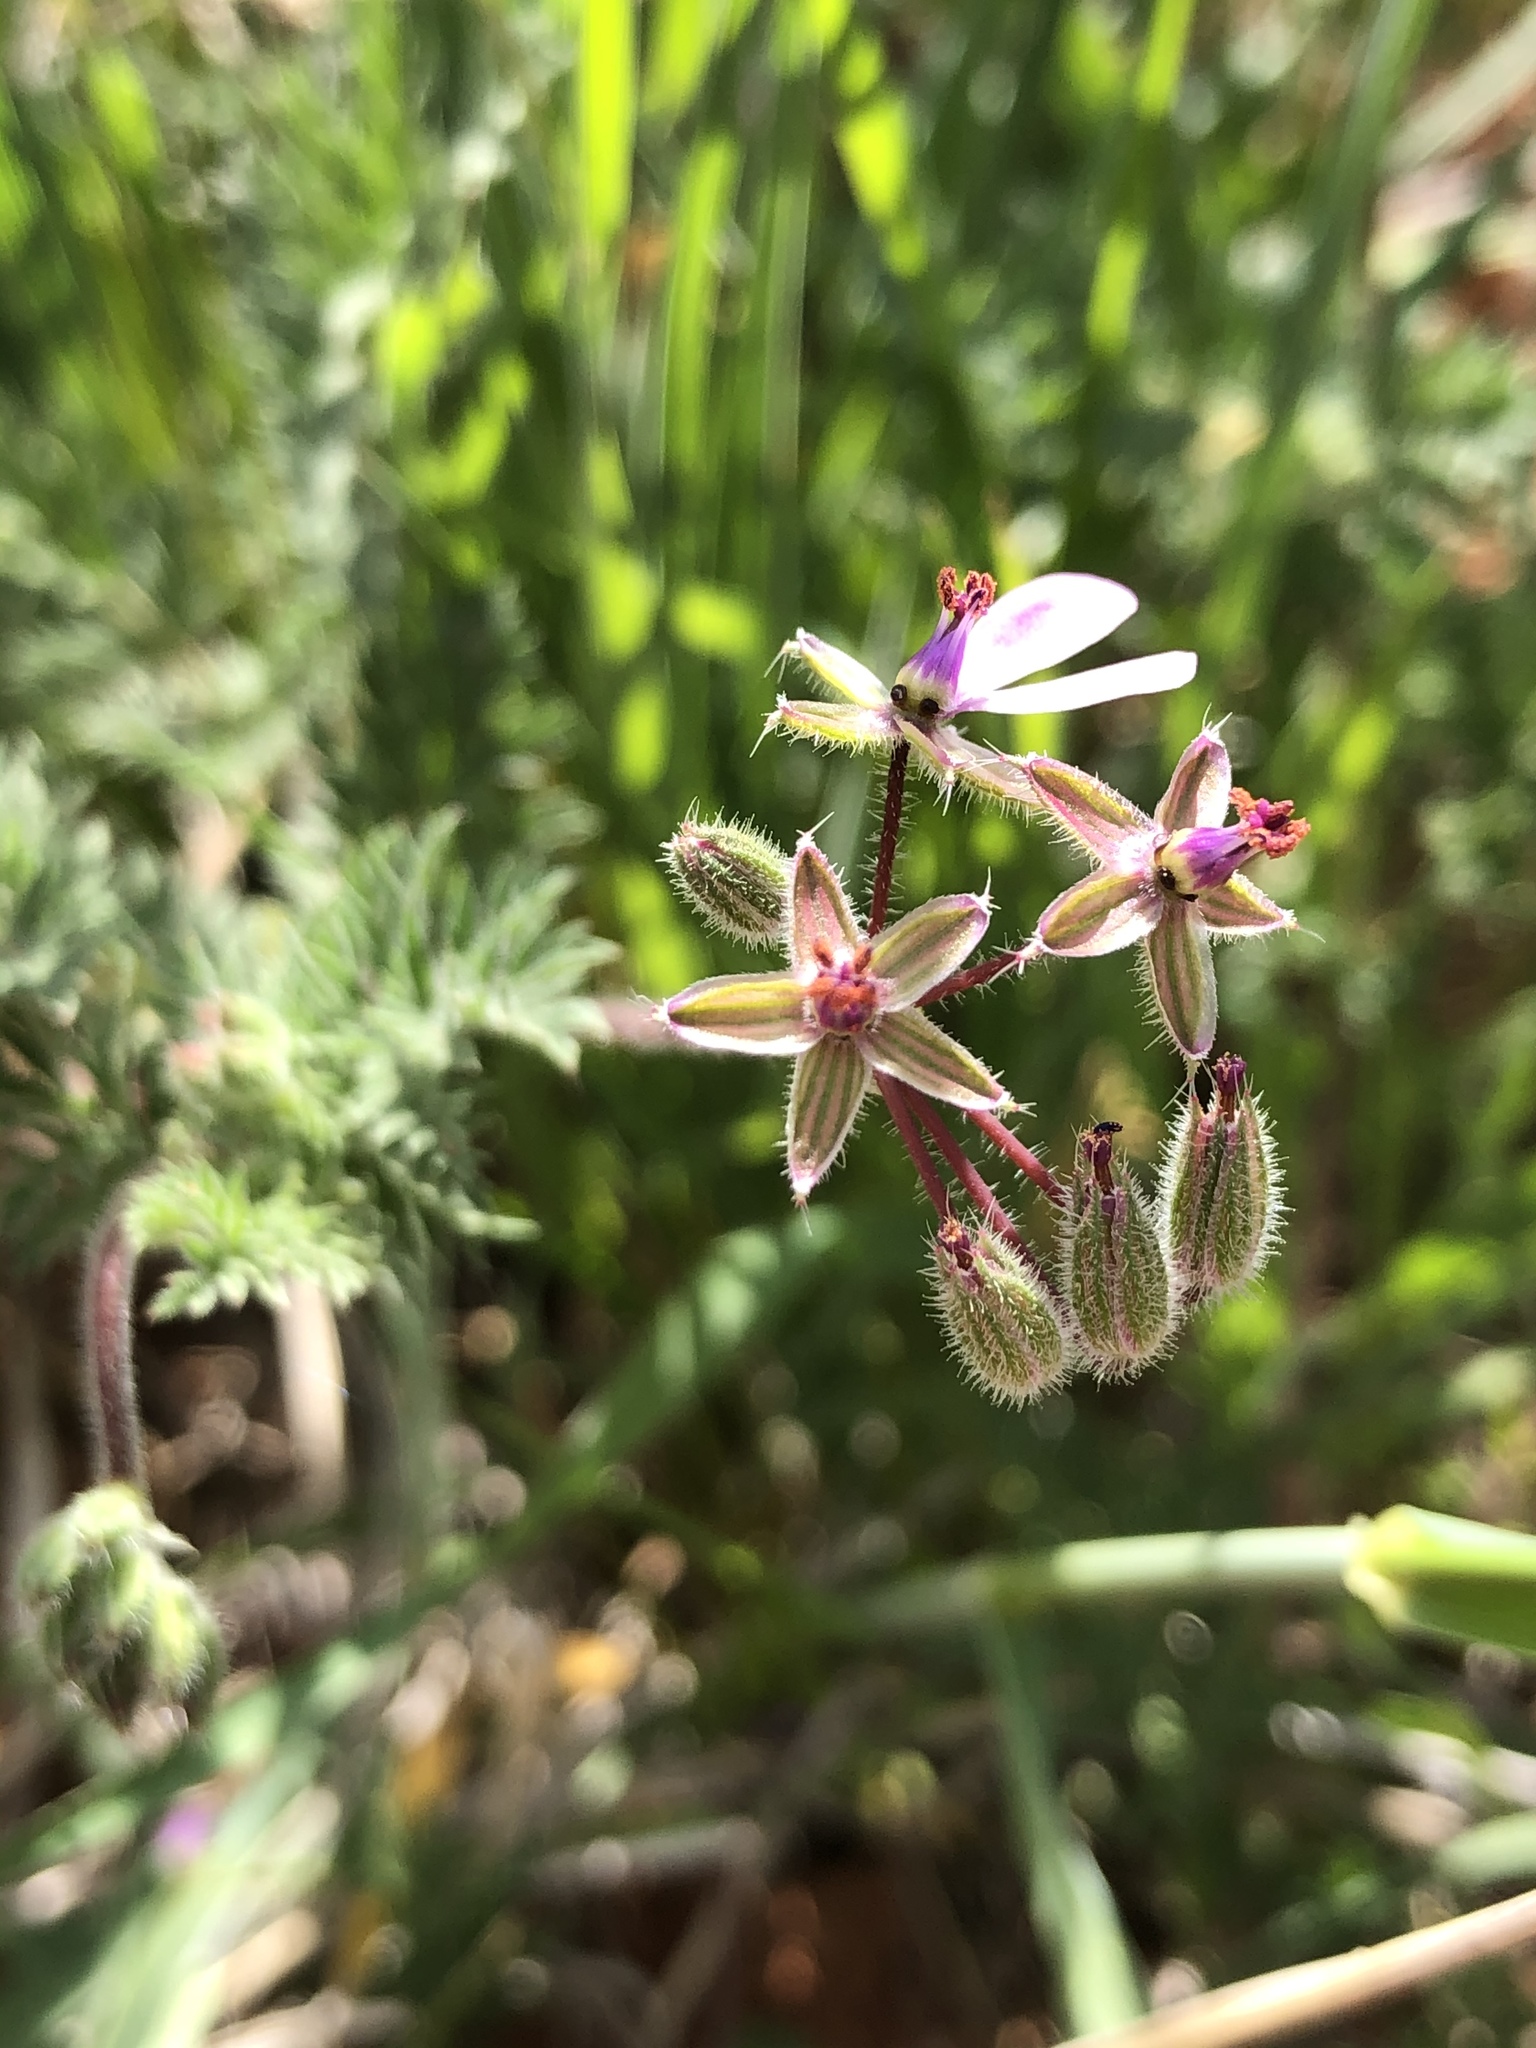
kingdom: Plantae
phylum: Tracheophyta
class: Magnoliopsida
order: Geraniales
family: Geraniaceae
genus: Erodium
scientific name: Erodium cicutarium
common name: Common stork's-bill
